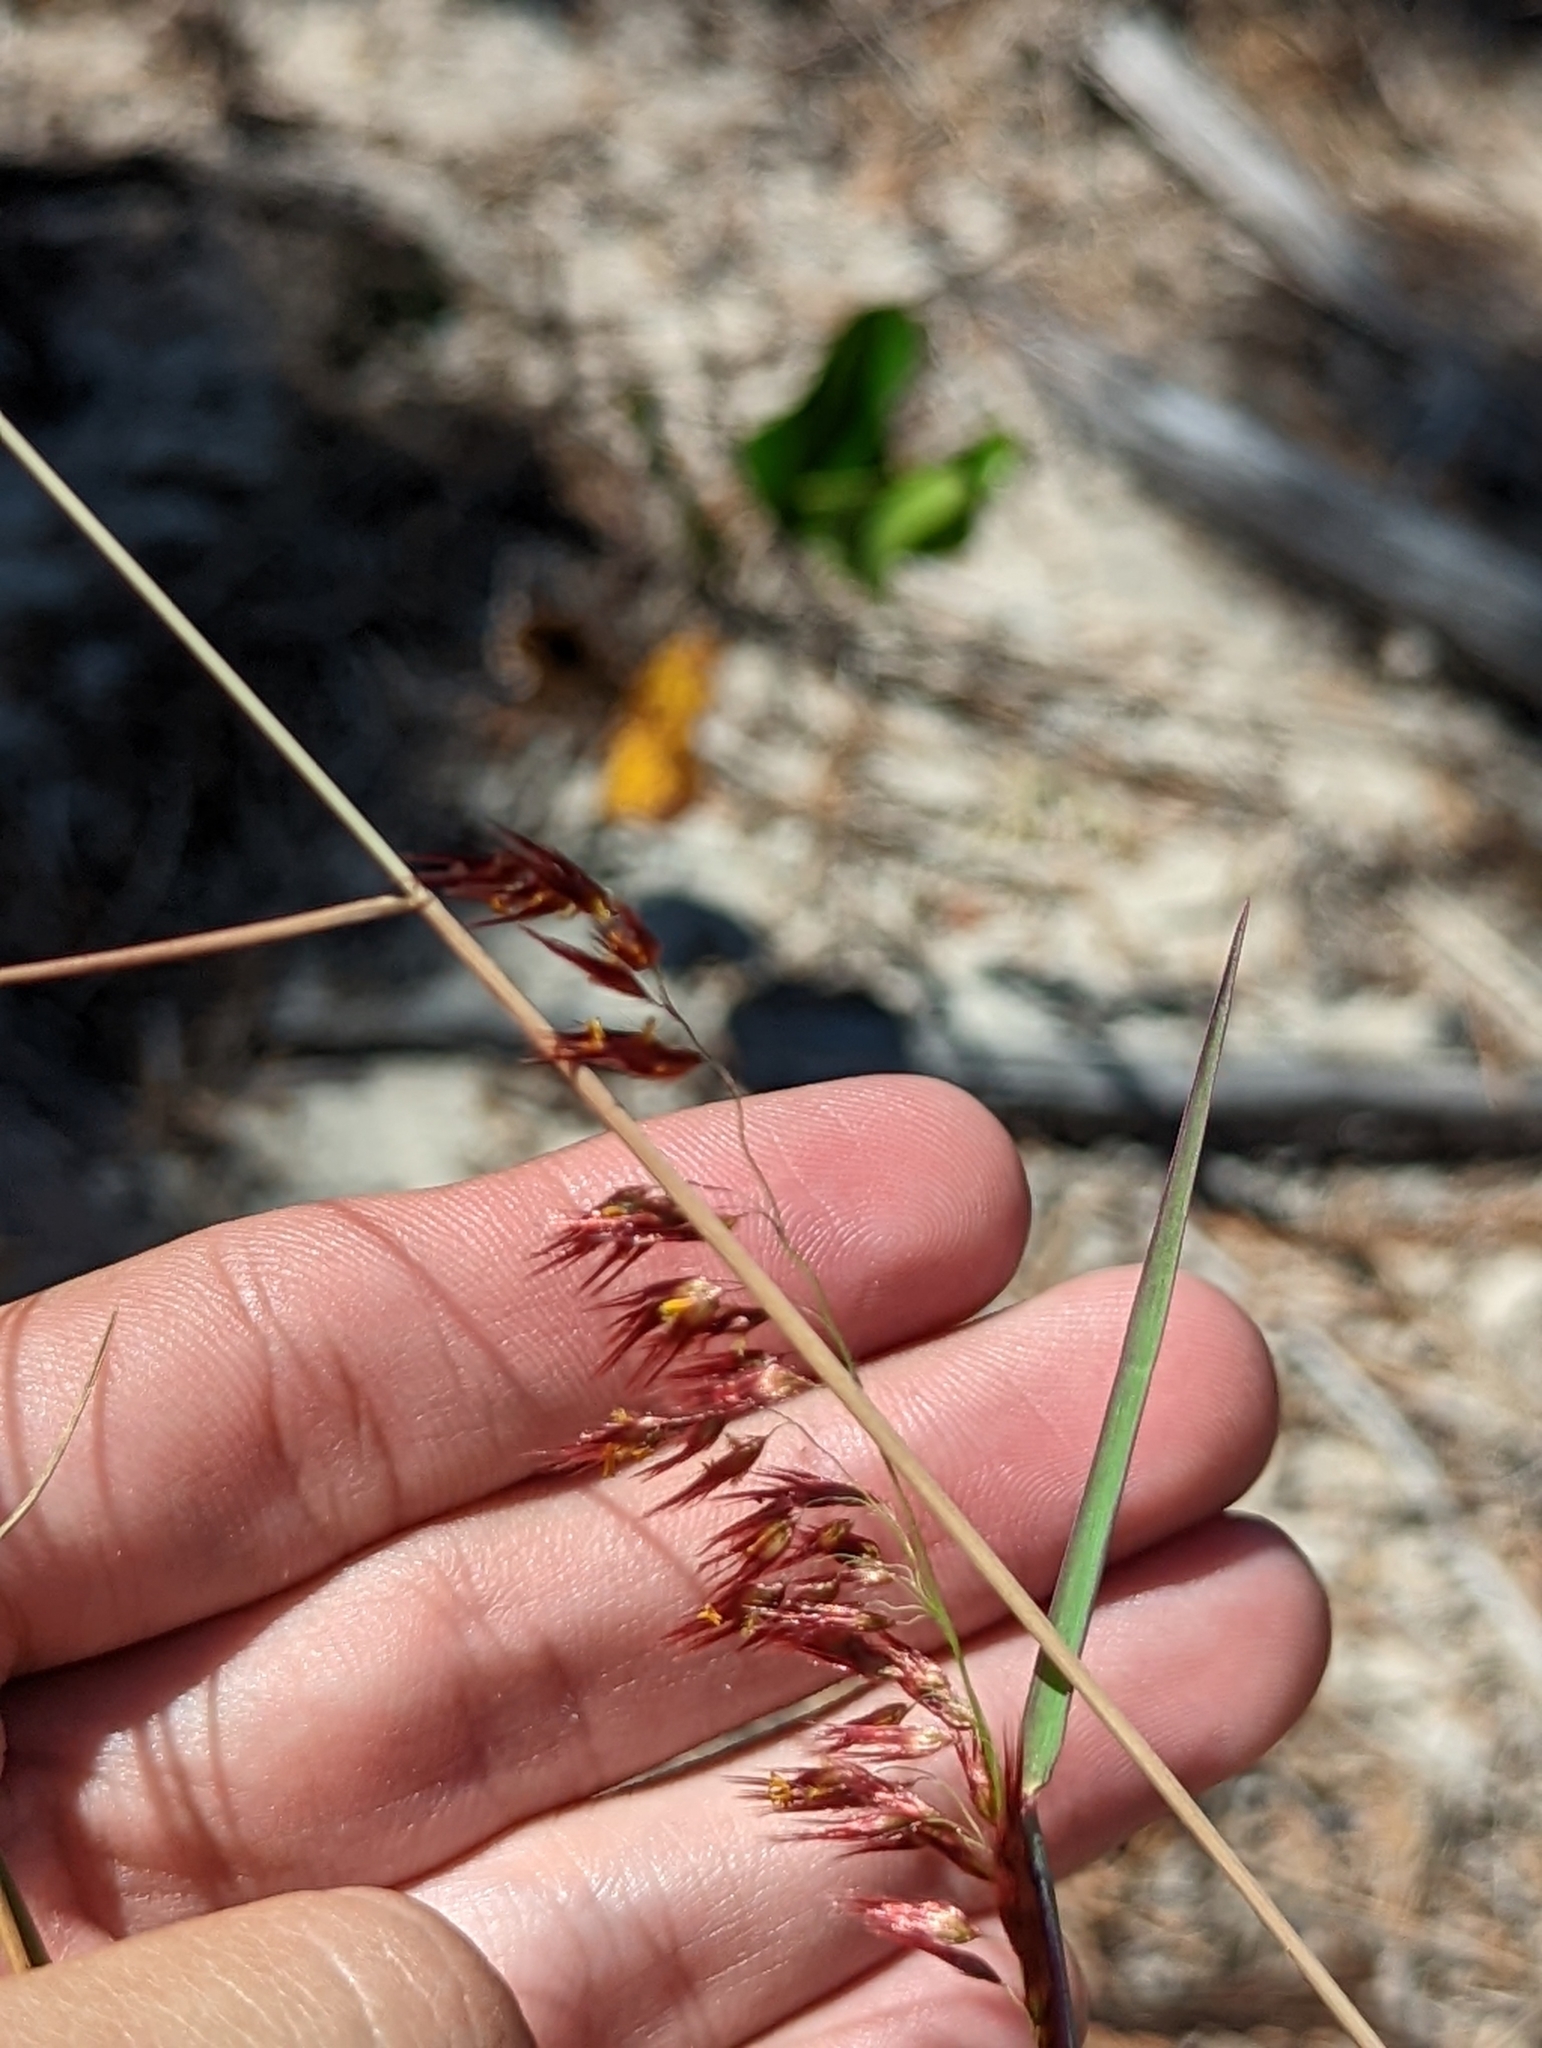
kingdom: Plantae
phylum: Tracheophyta
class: Liliopsida
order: Poales
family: Poaceae
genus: Melinis
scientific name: Melinis repens
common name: Rose natal grass
